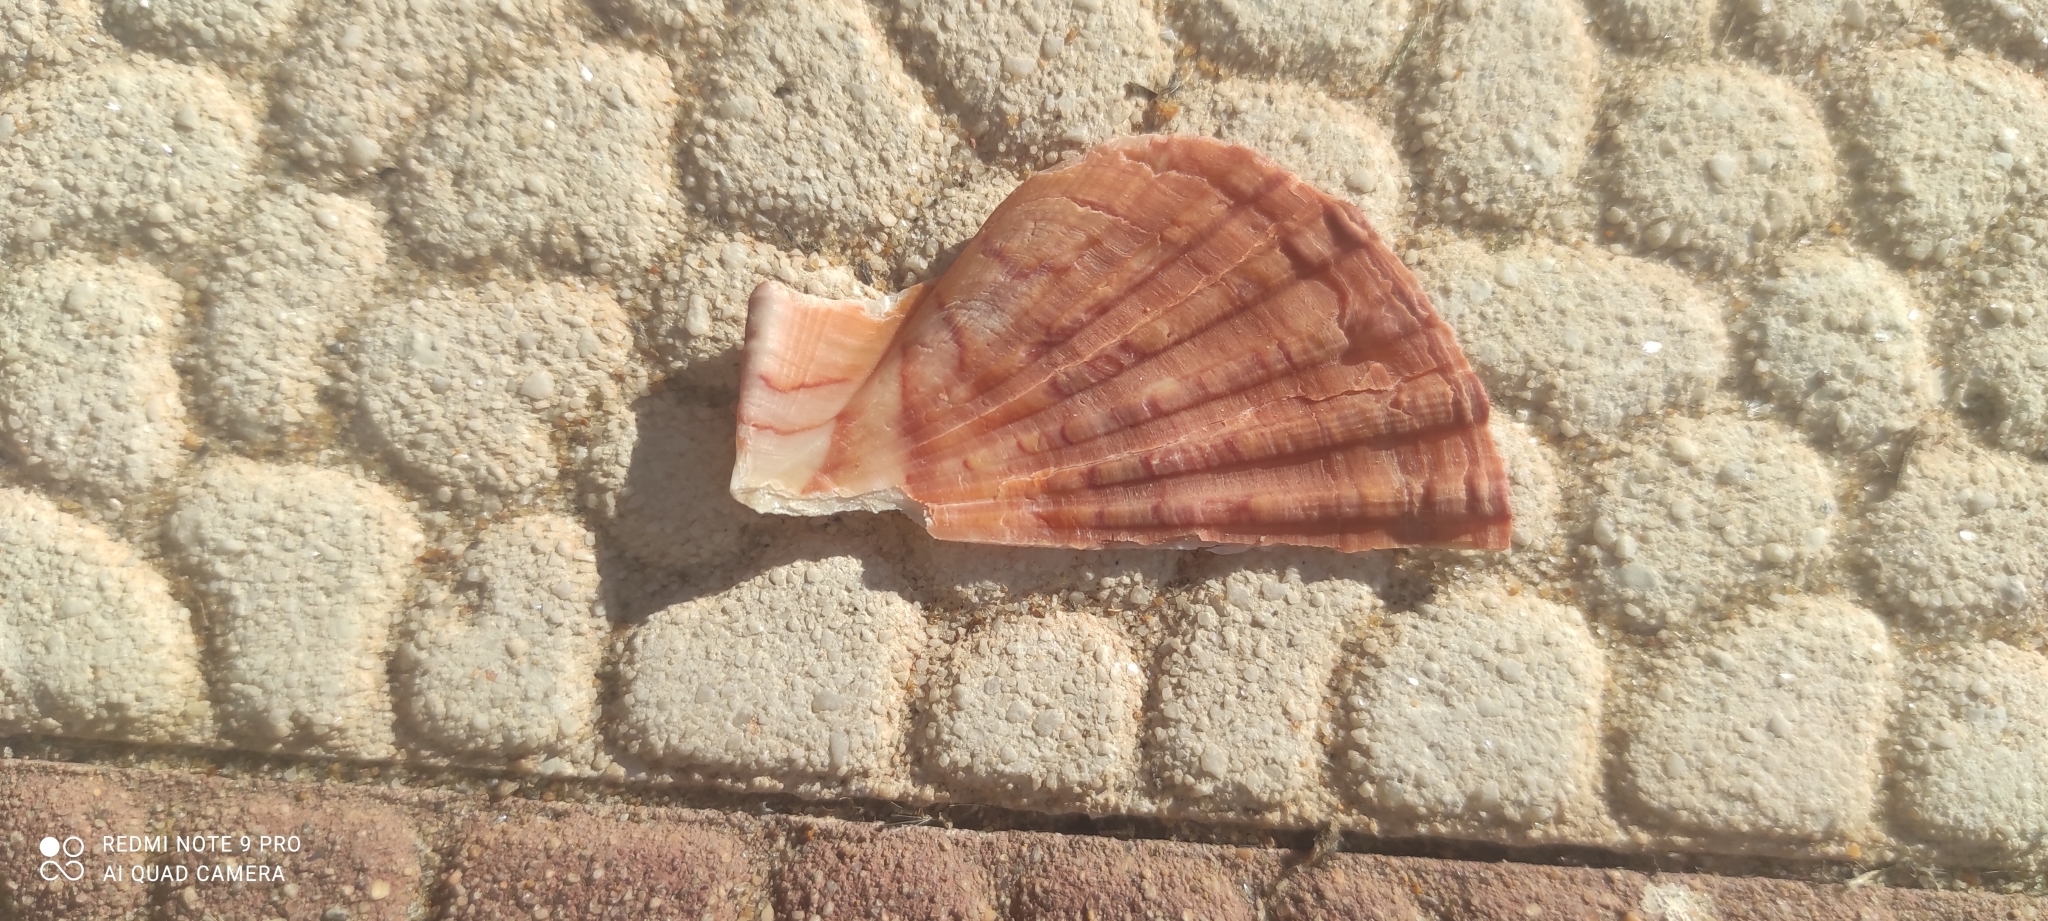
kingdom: Animalia
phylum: Mollusca
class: Bivalvia
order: Pectinida
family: Pectinidae
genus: Pecten
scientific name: Pecten maximus
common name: Great scallop
